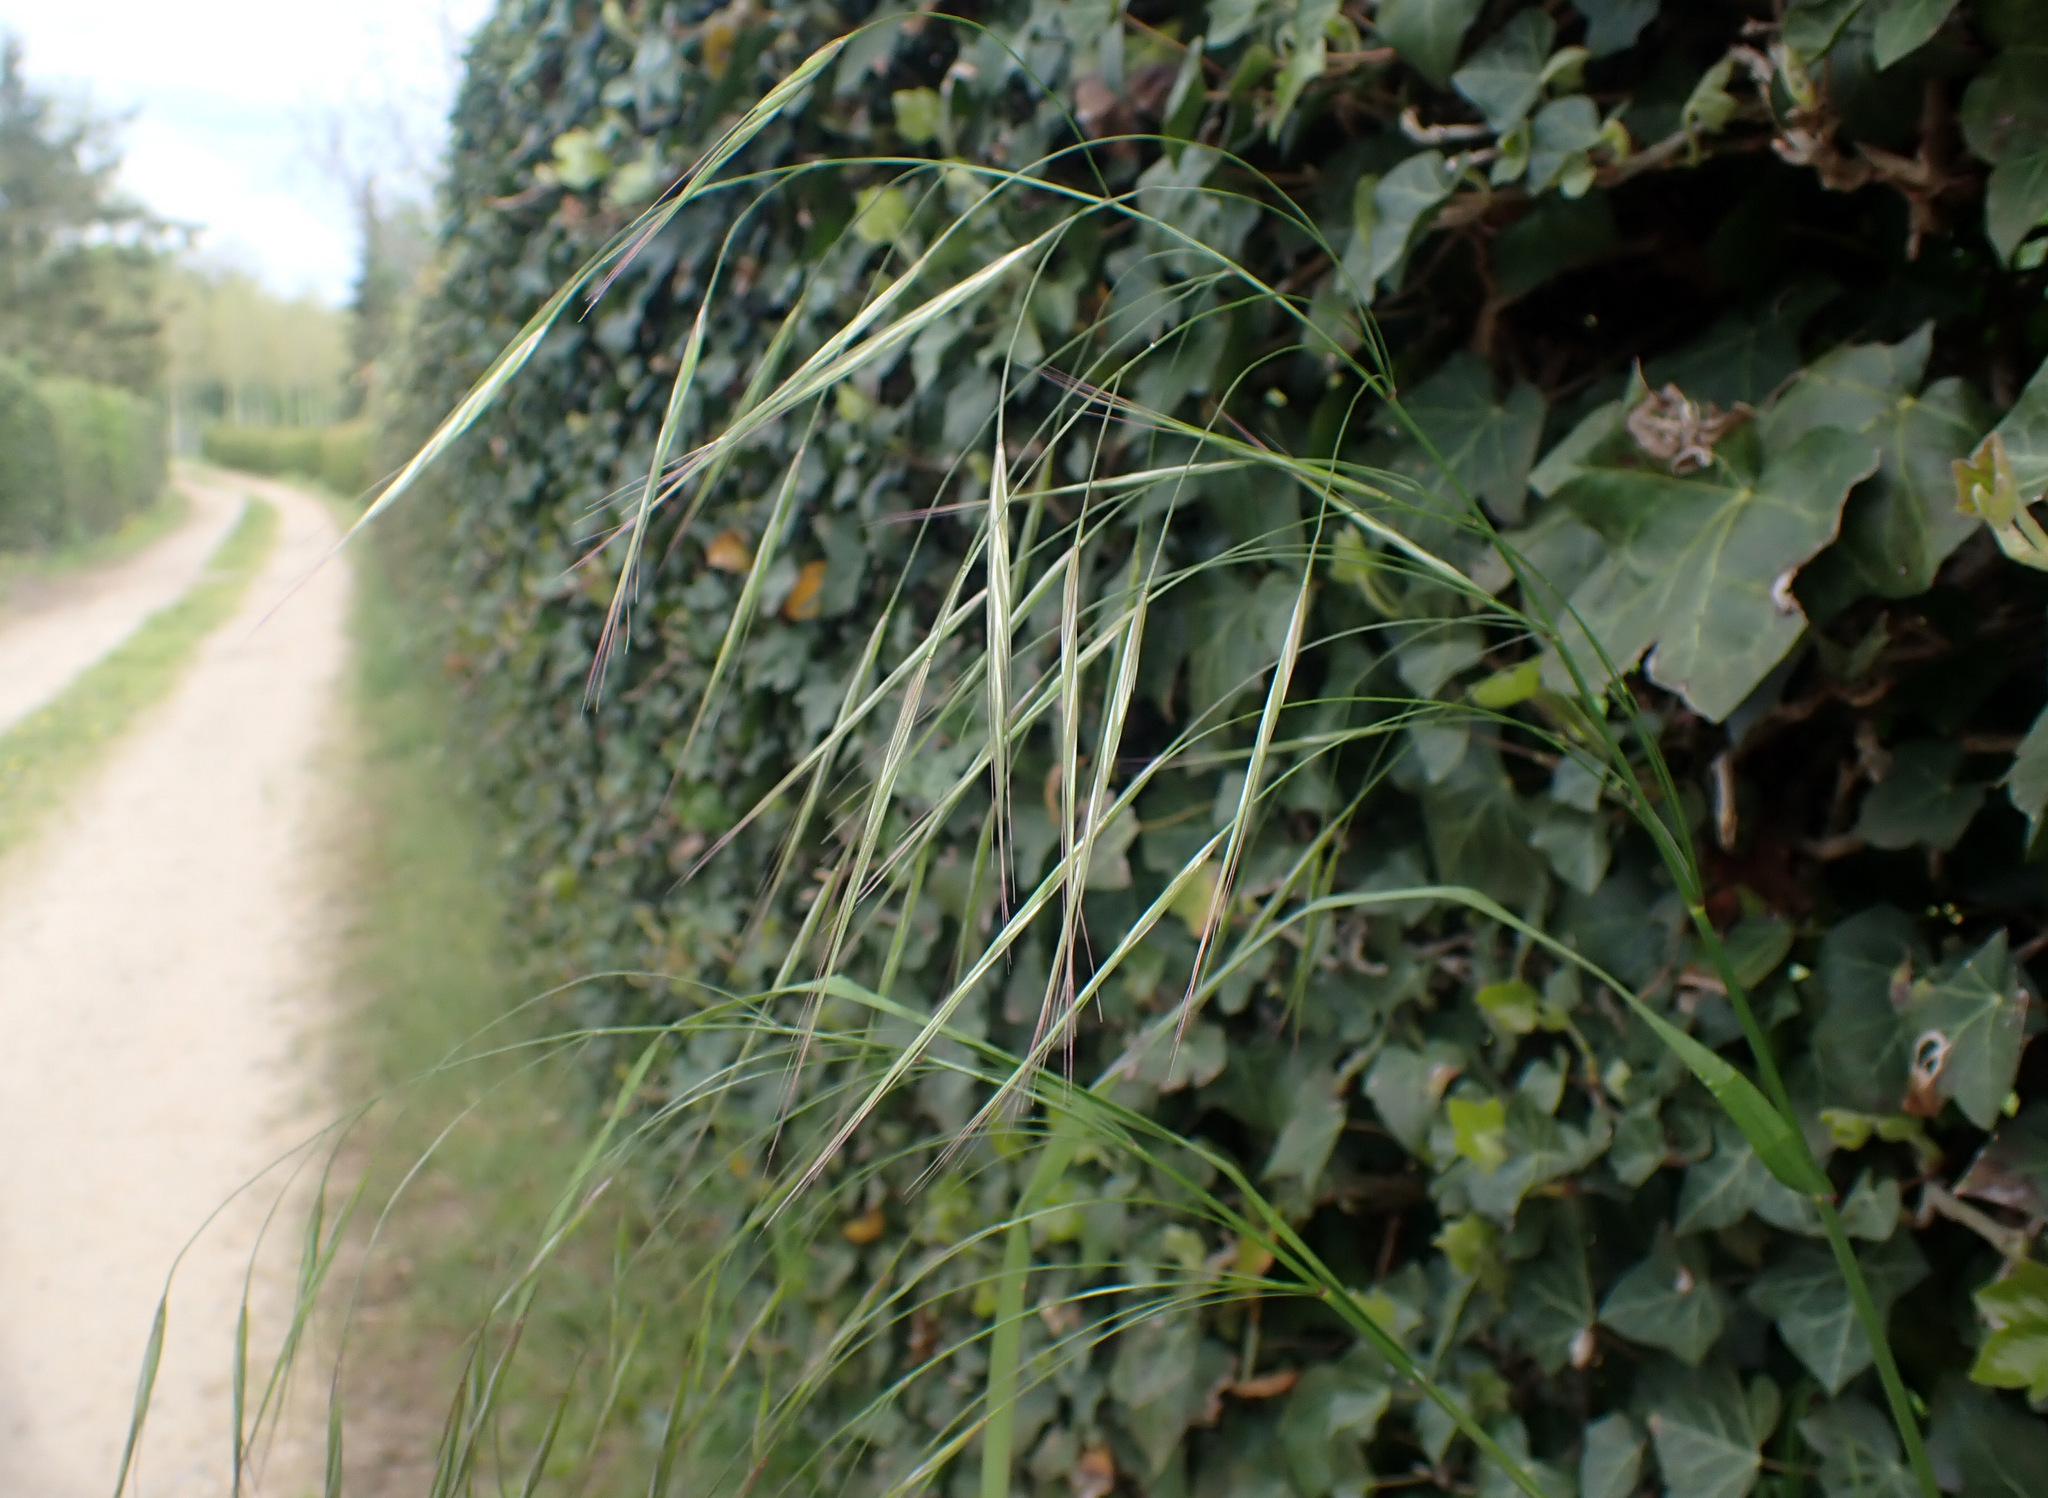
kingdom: Plantae
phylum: Tracheophyta
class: Liliopsida
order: Poales
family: Poaceae
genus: Bromus
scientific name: Bromus sterilis
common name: Poverty brome
